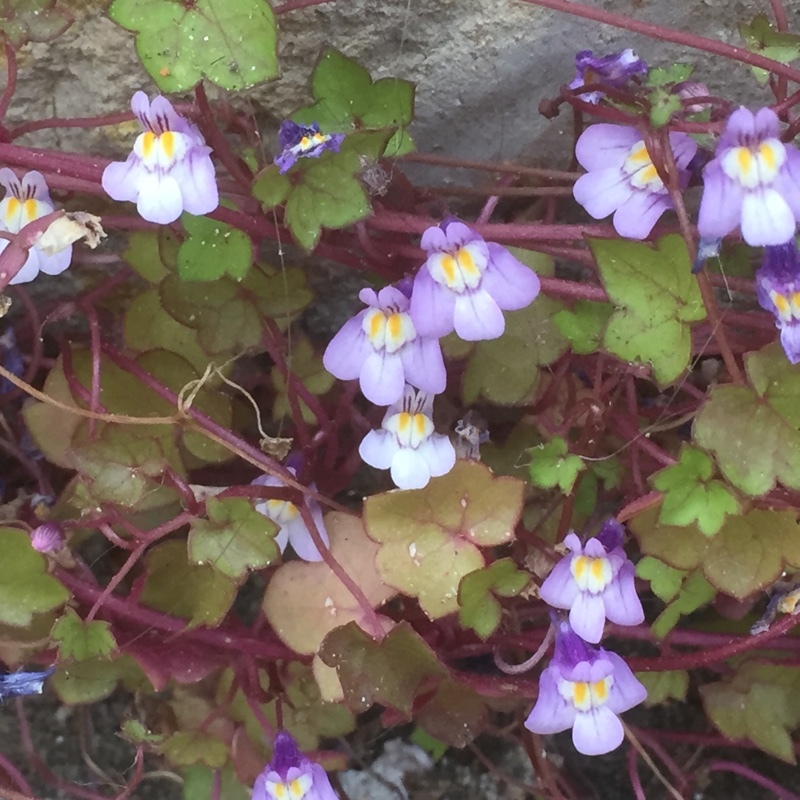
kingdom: Plantae
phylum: Tracheophyta
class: Magnoliopsida
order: Lamiales
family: Plantaginaceae
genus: Cymbalaria
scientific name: Cymbalaria muralis
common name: Ivy-leaved toadflax
